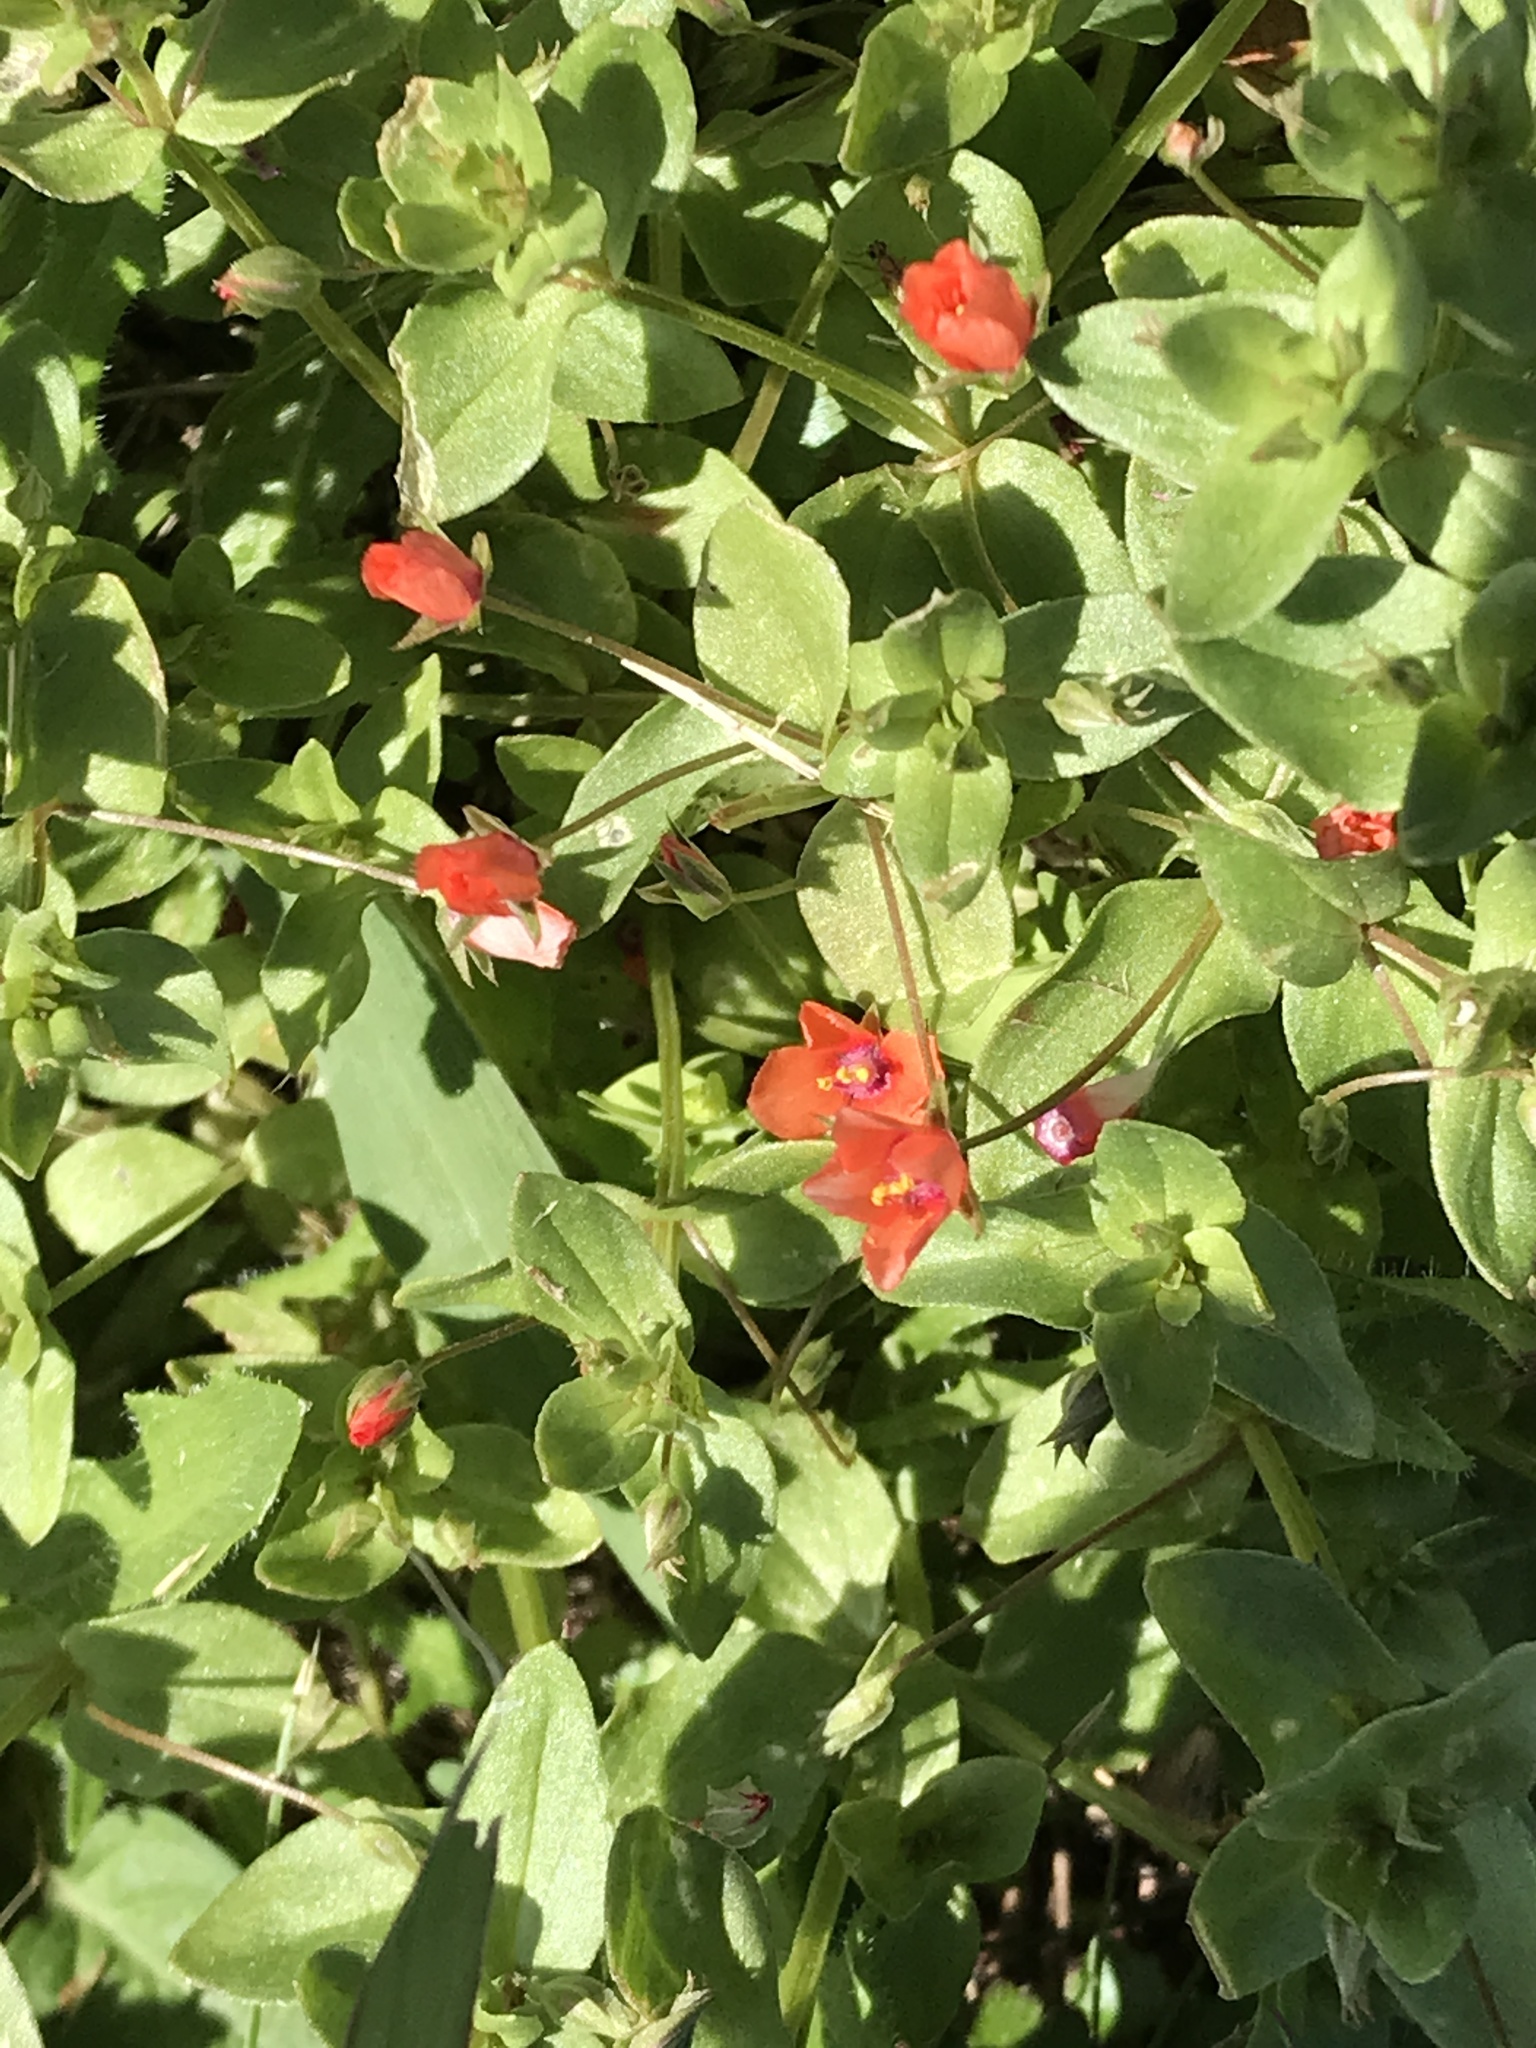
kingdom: Plantae
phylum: Tracheophyta
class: Magnoliopsida
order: Ericales
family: Primulaceae
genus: Lysimachia
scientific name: Lysimachia arvensis
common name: Scarlet pimpernel
